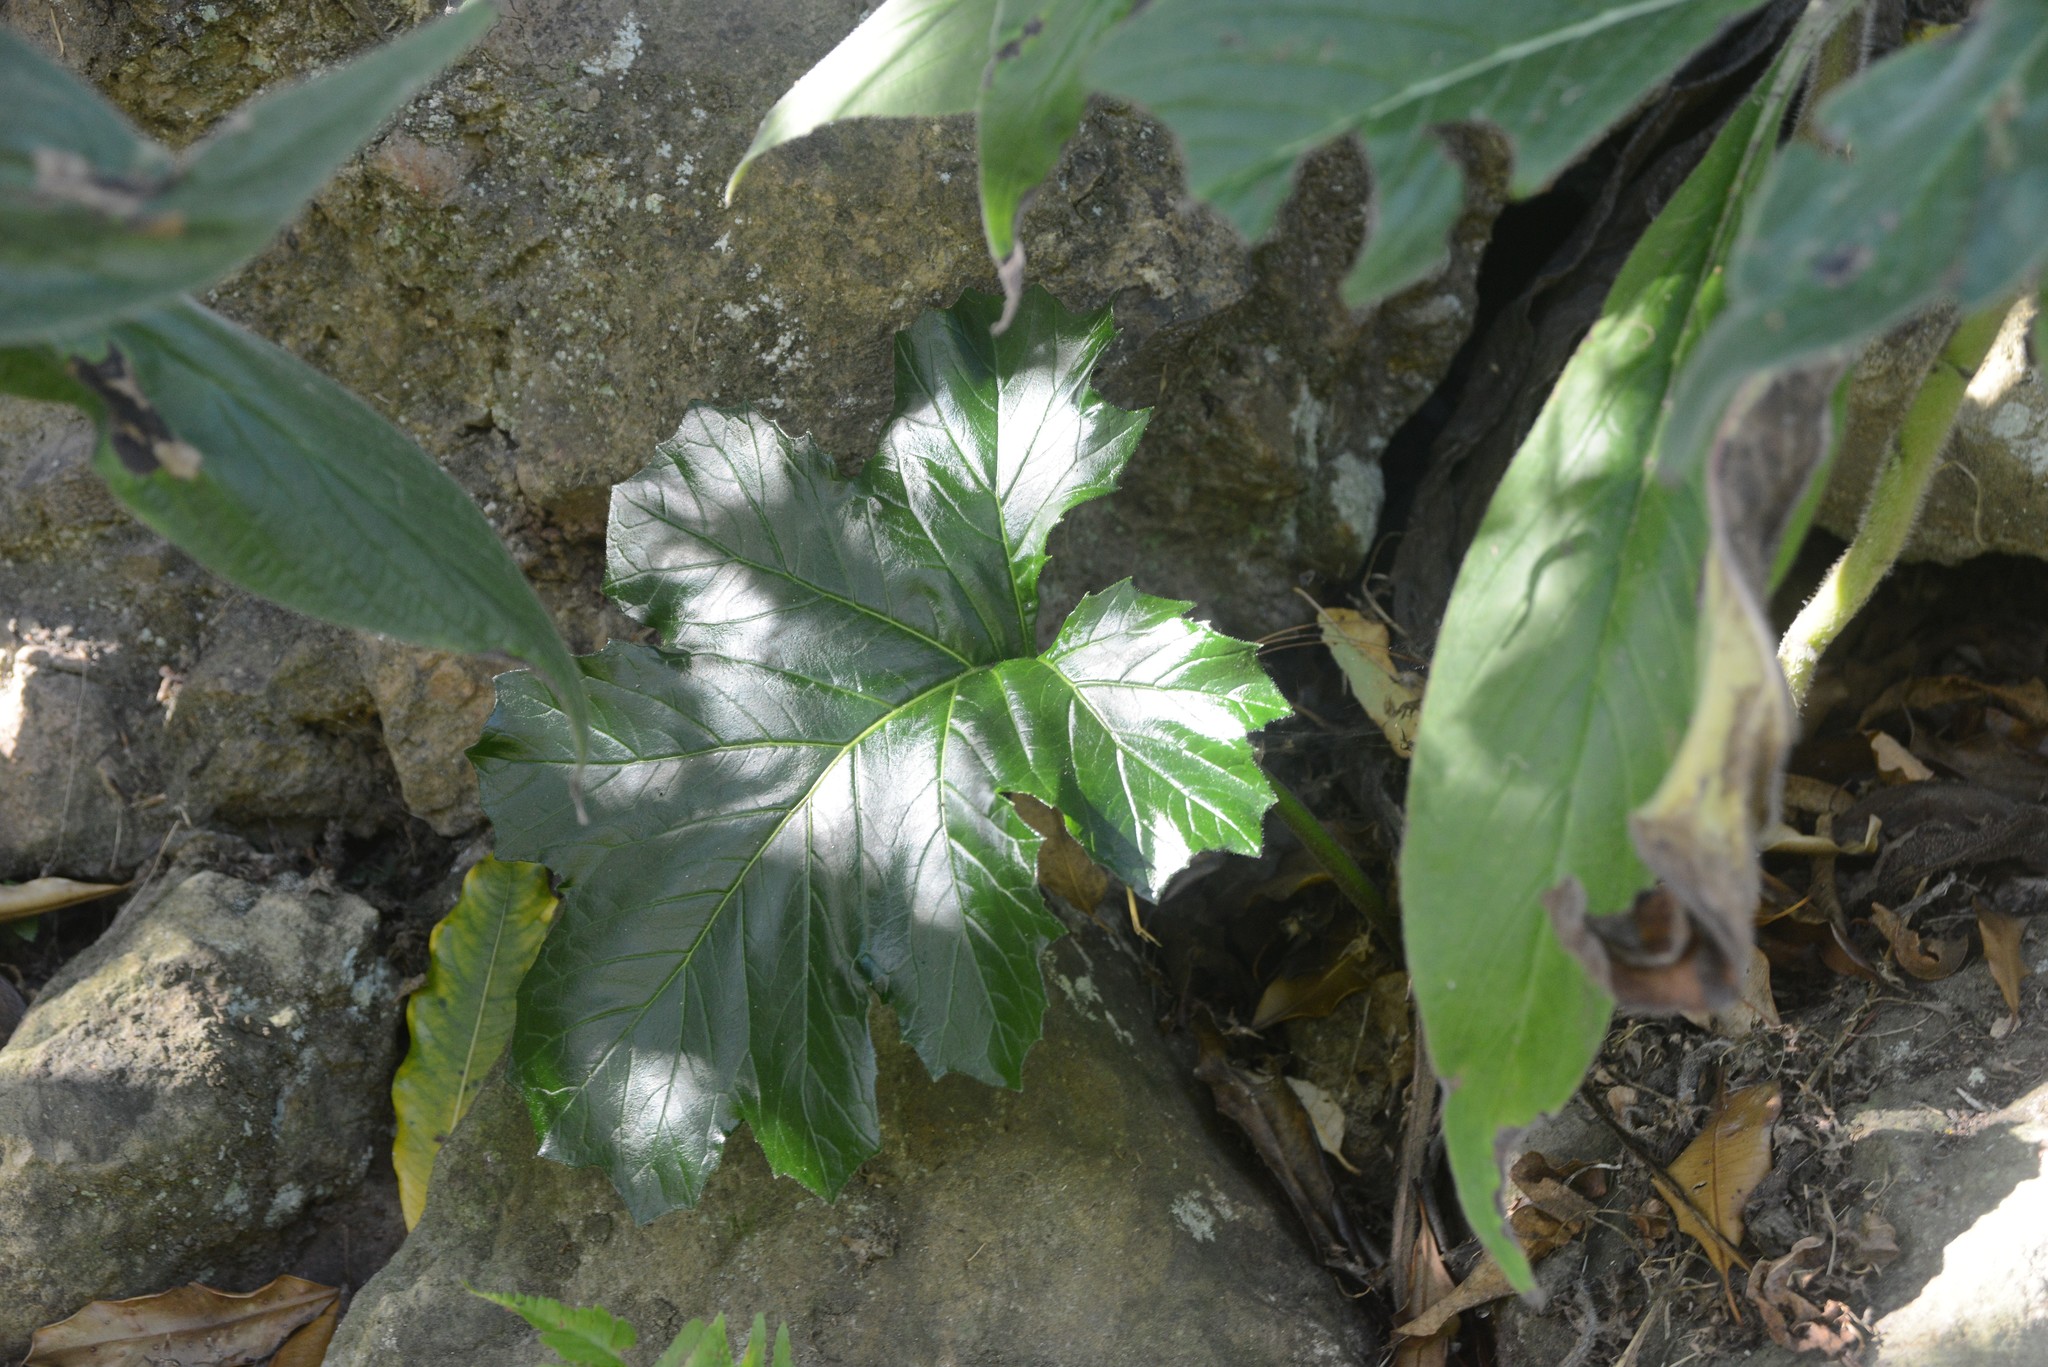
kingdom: Plantae
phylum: Tracheophyta
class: Magnoliopsida
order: Lamiales
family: Acanthaceae
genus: Acanthus
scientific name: Acanthus mollis
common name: Bear's-breech
